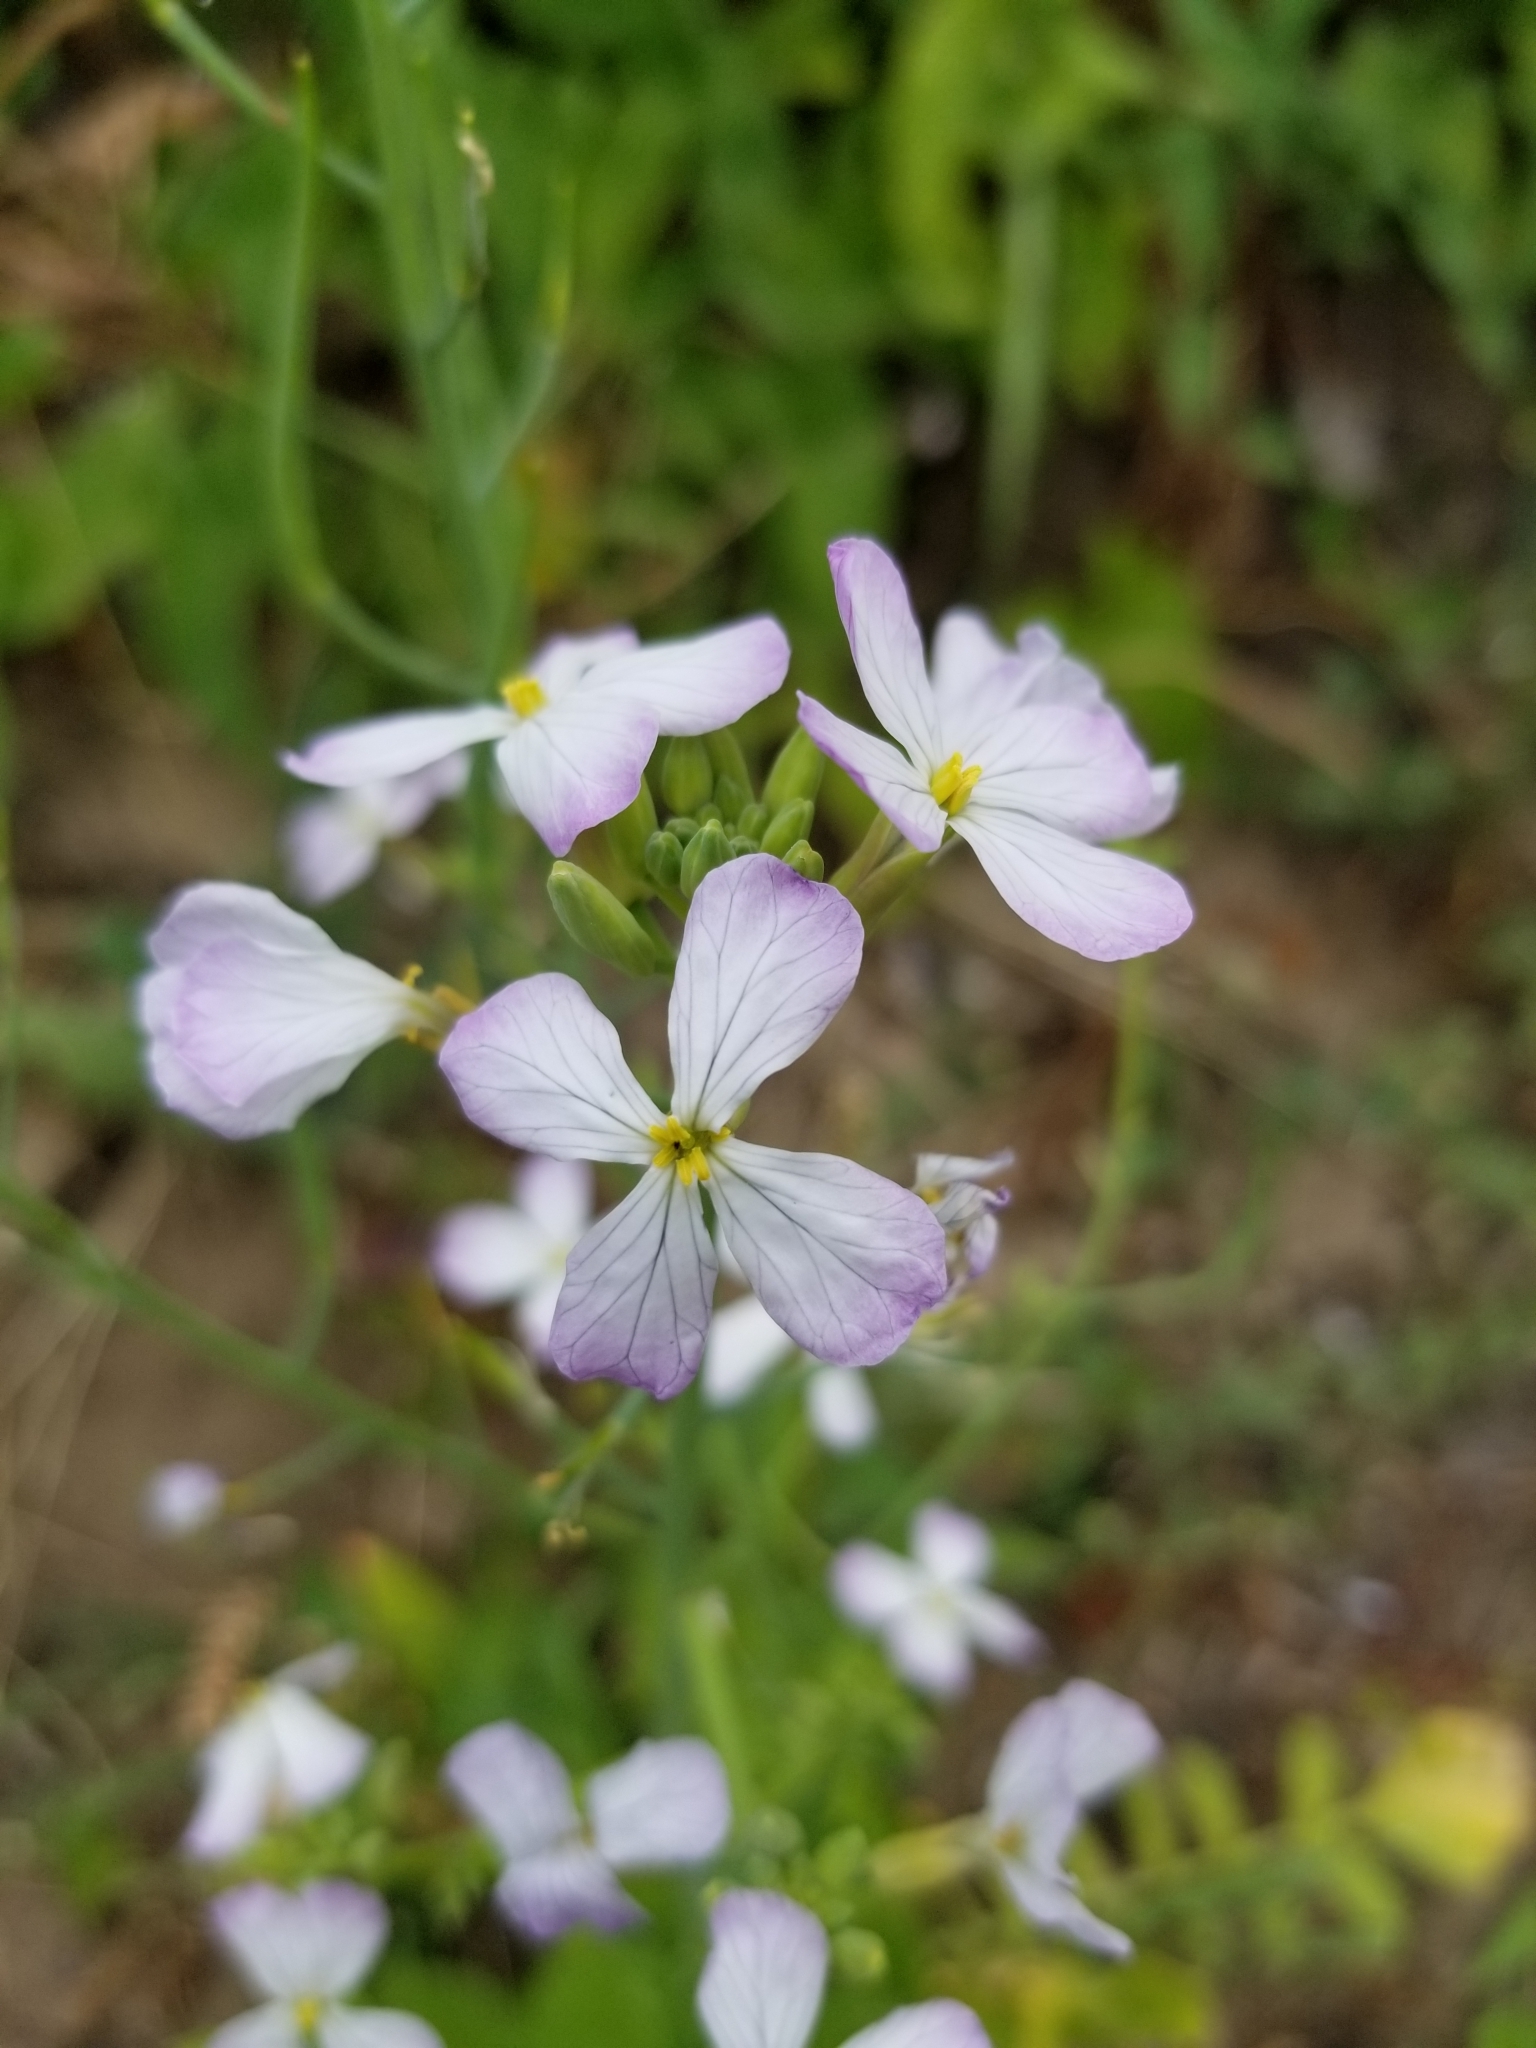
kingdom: Plantae
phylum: Tracheophyta
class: Magnoliopsida
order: Brassicales
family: Brassicaceae
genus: Raphanus
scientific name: Raphanus sativus
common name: Cultivated radish
